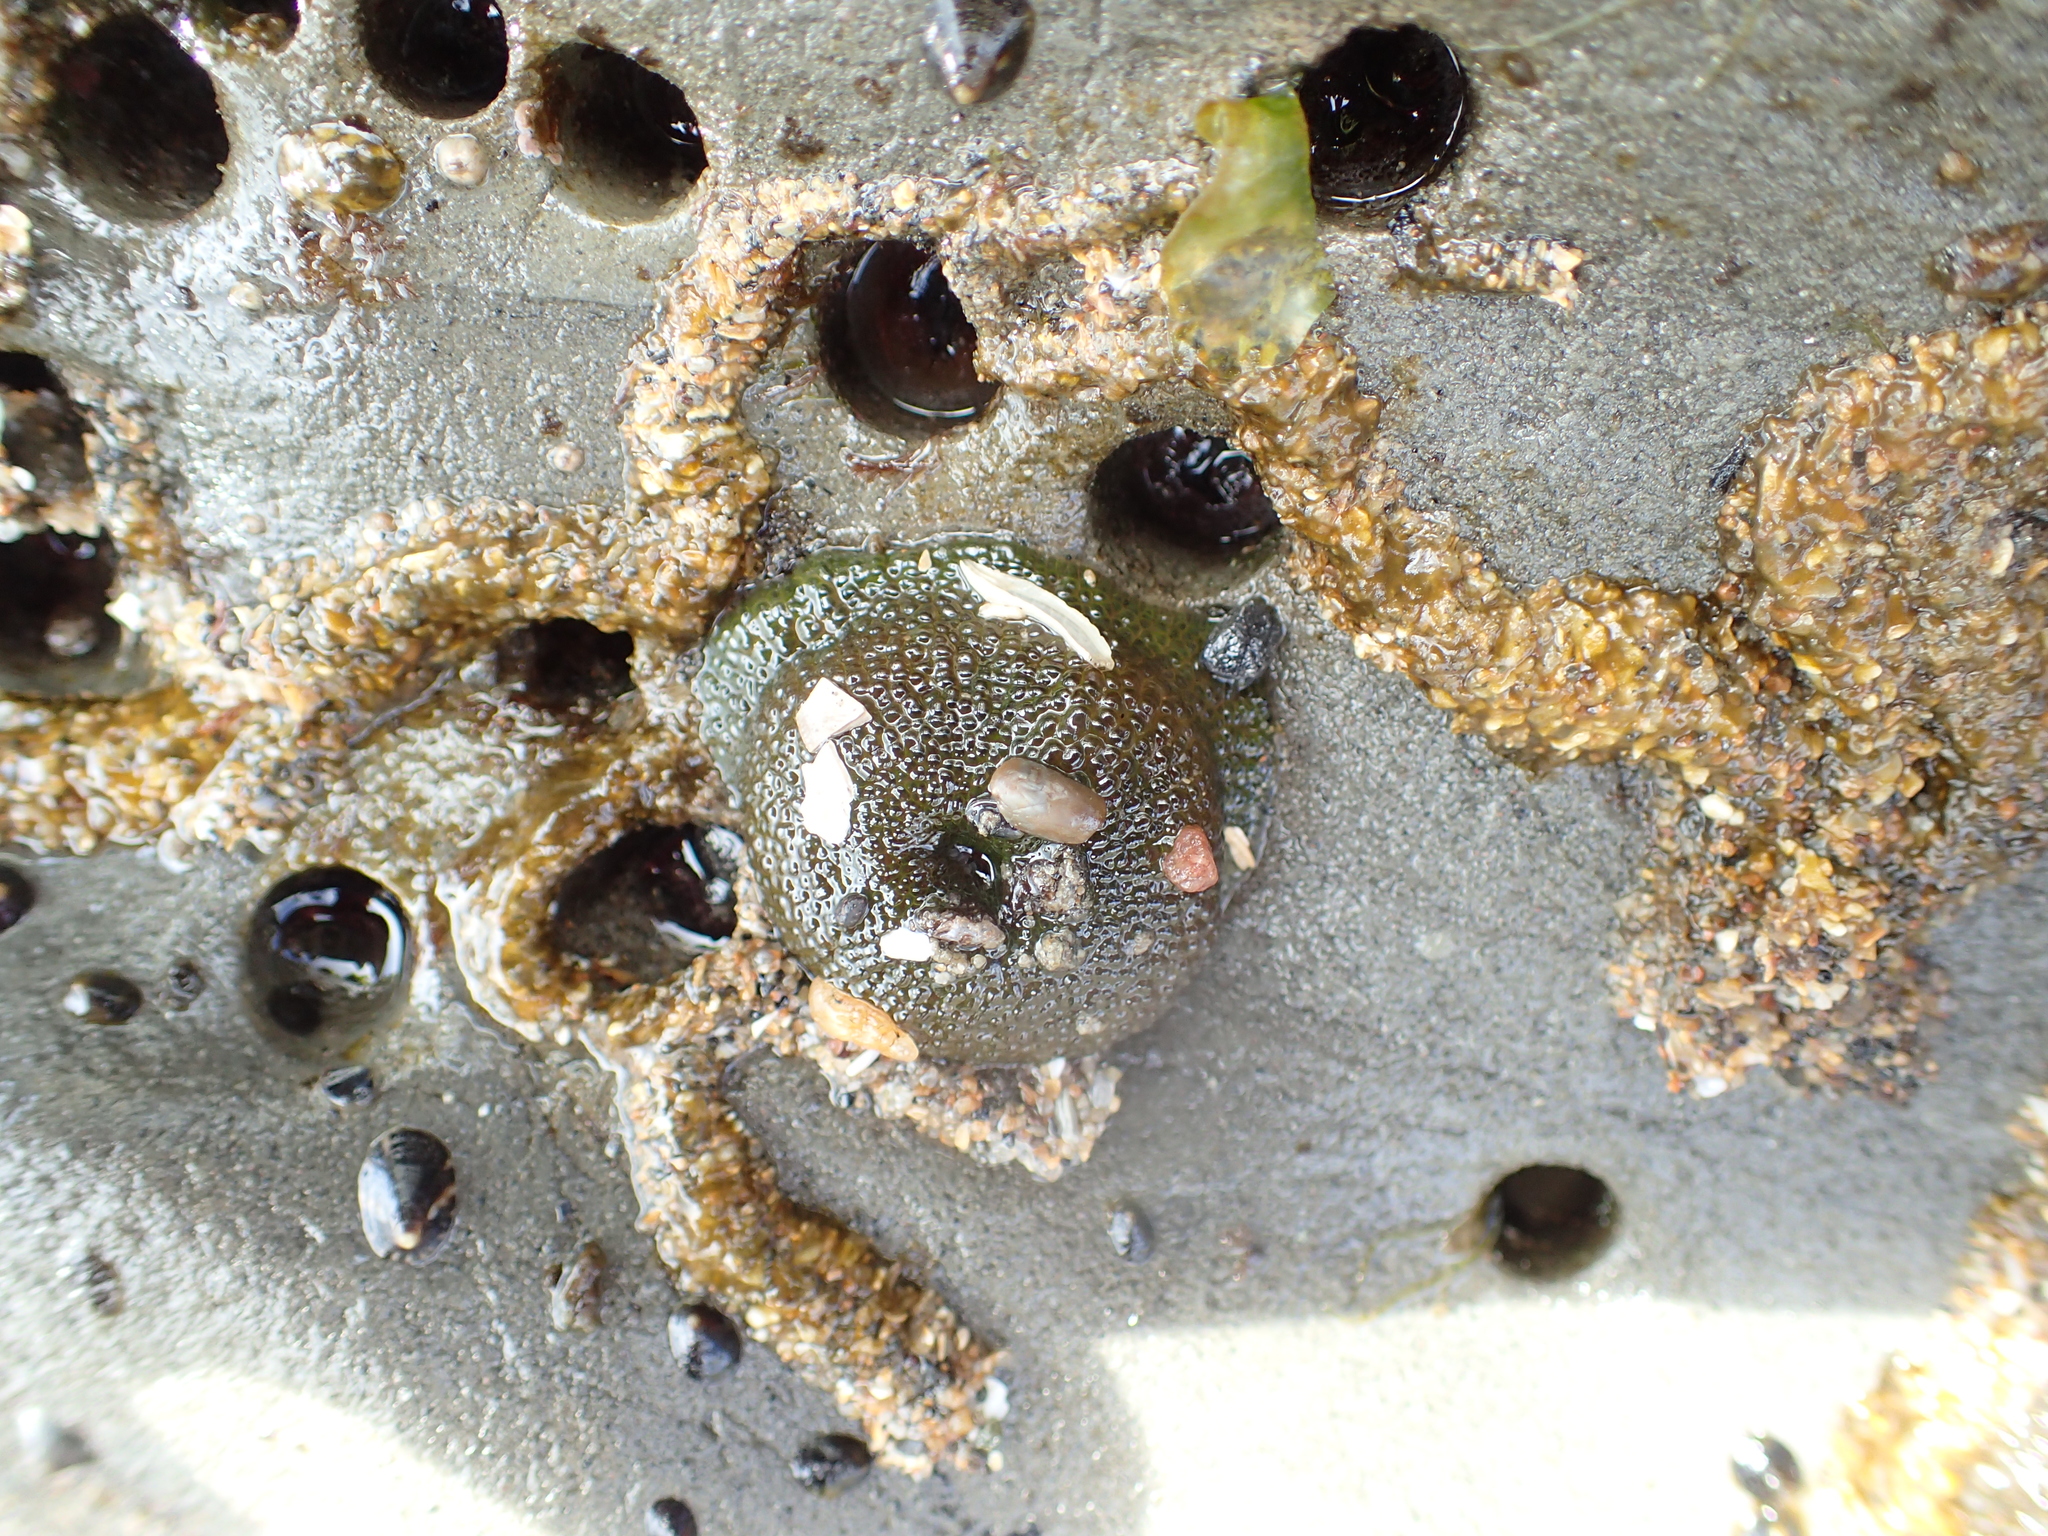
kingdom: Animalia
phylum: Cnidaria
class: Anthozoa
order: Actiniaria
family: Actiniidae
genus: Anthopleura
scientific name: Anthopleura xanthogrammica
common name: Giant green anemone
